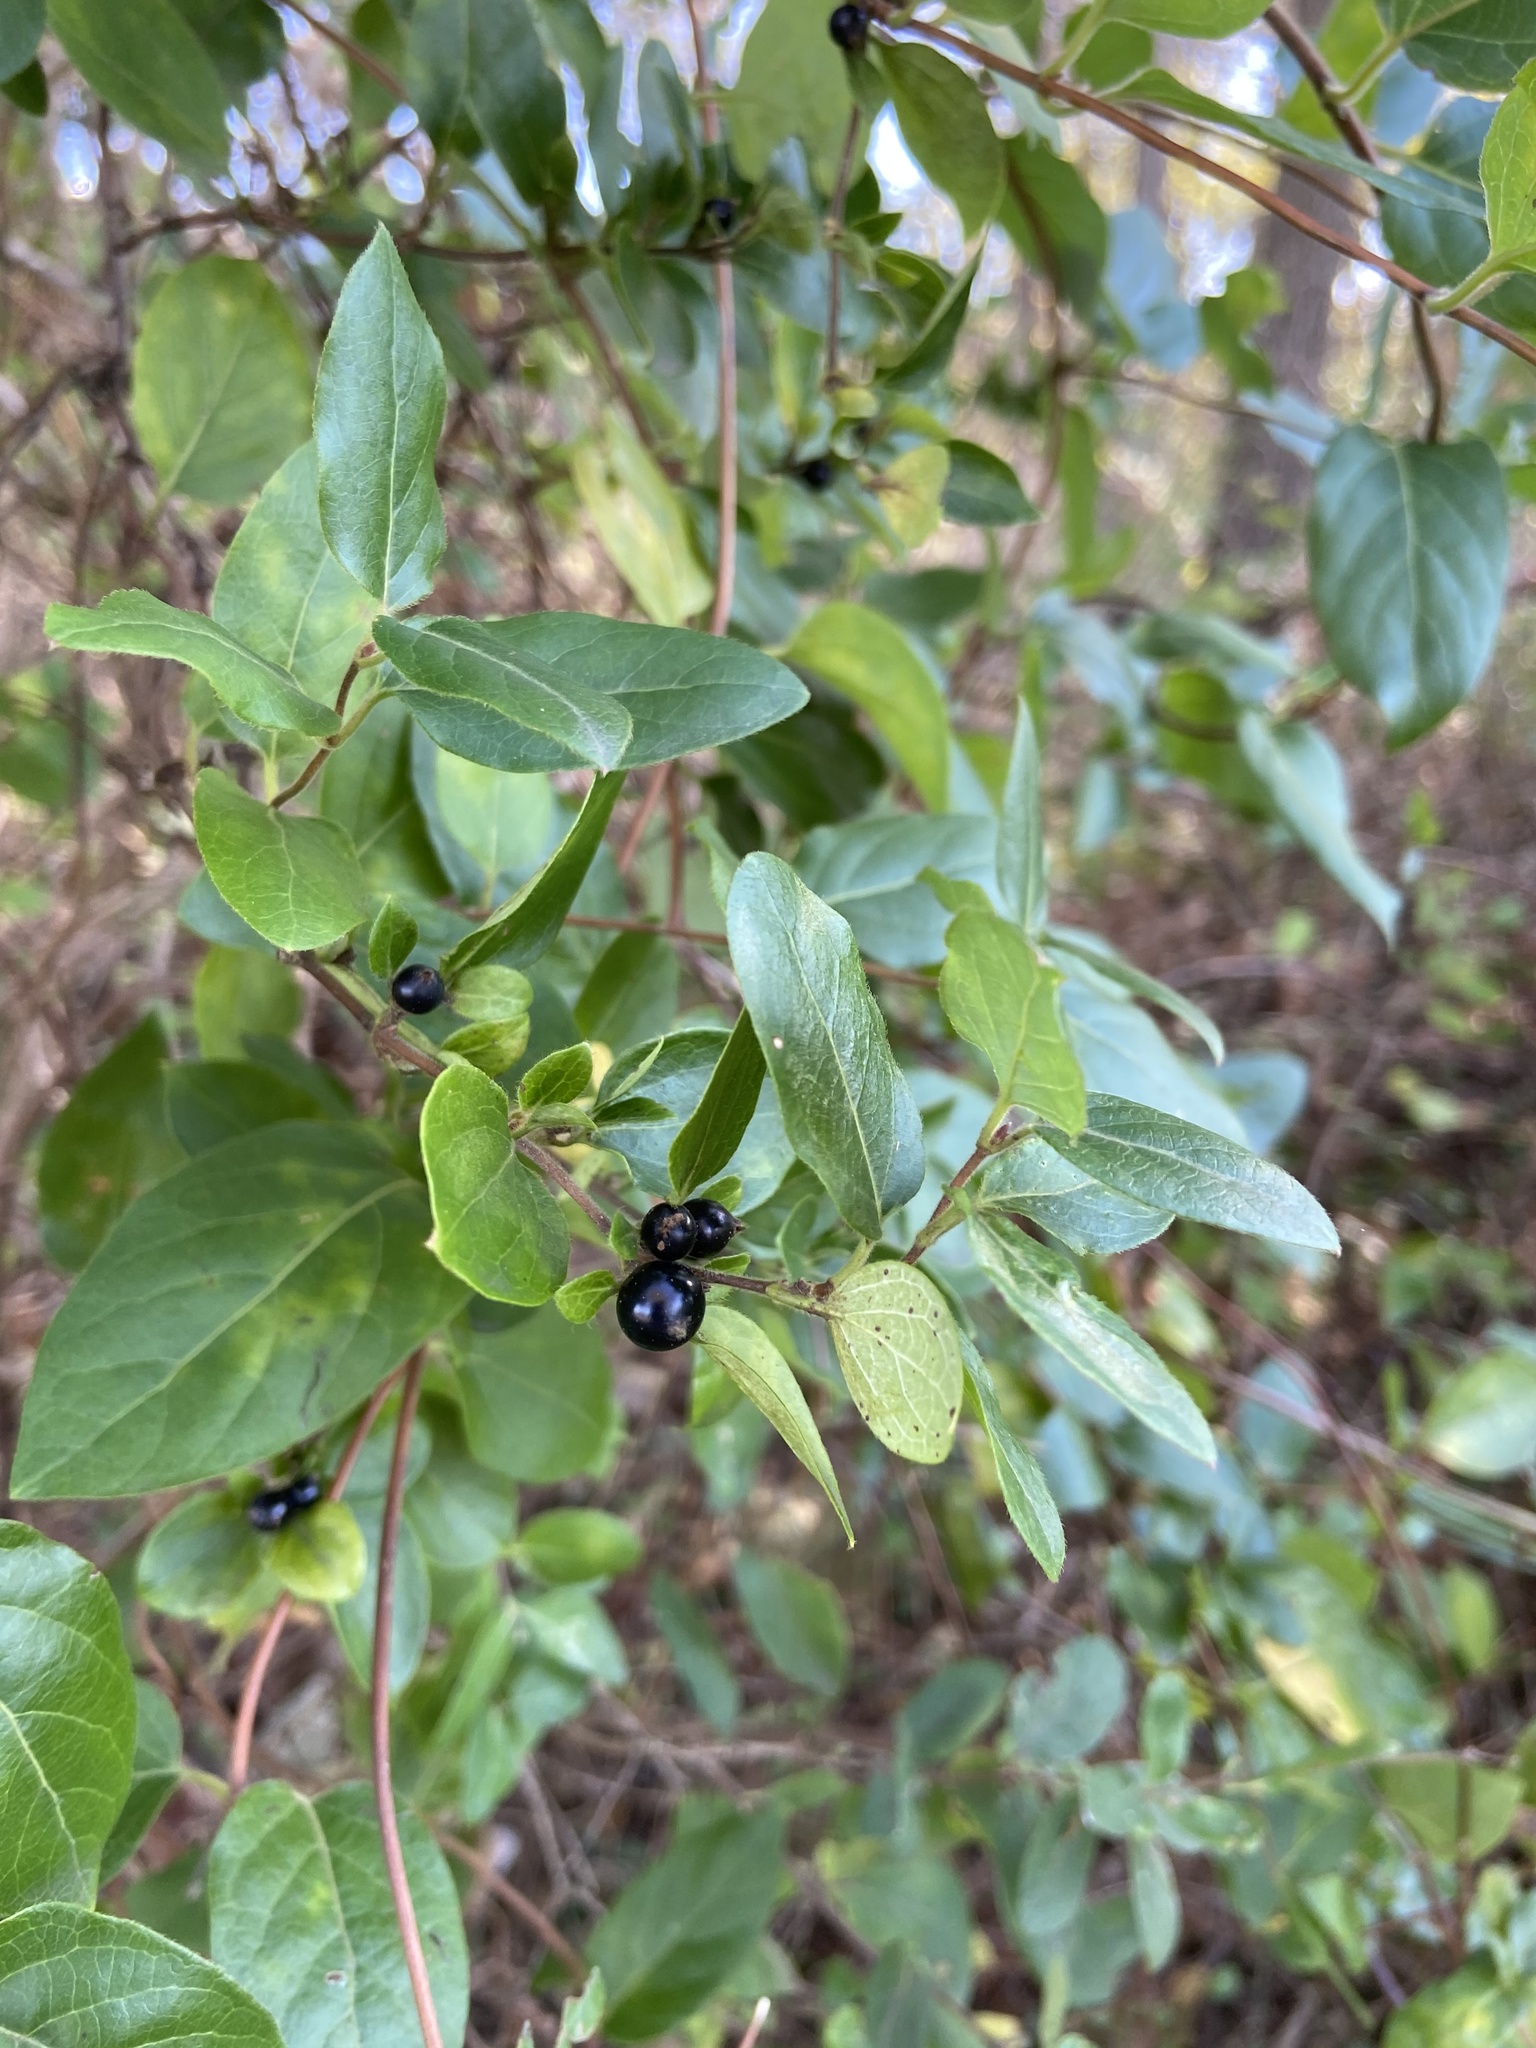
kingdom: Plantae
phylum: Tracheophyta
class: Magnoliopsida
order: Dipsacales
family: Caprifoliaceae
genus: Lonicera
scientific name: Lonicera japonica
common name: Japanese honeysuckle
